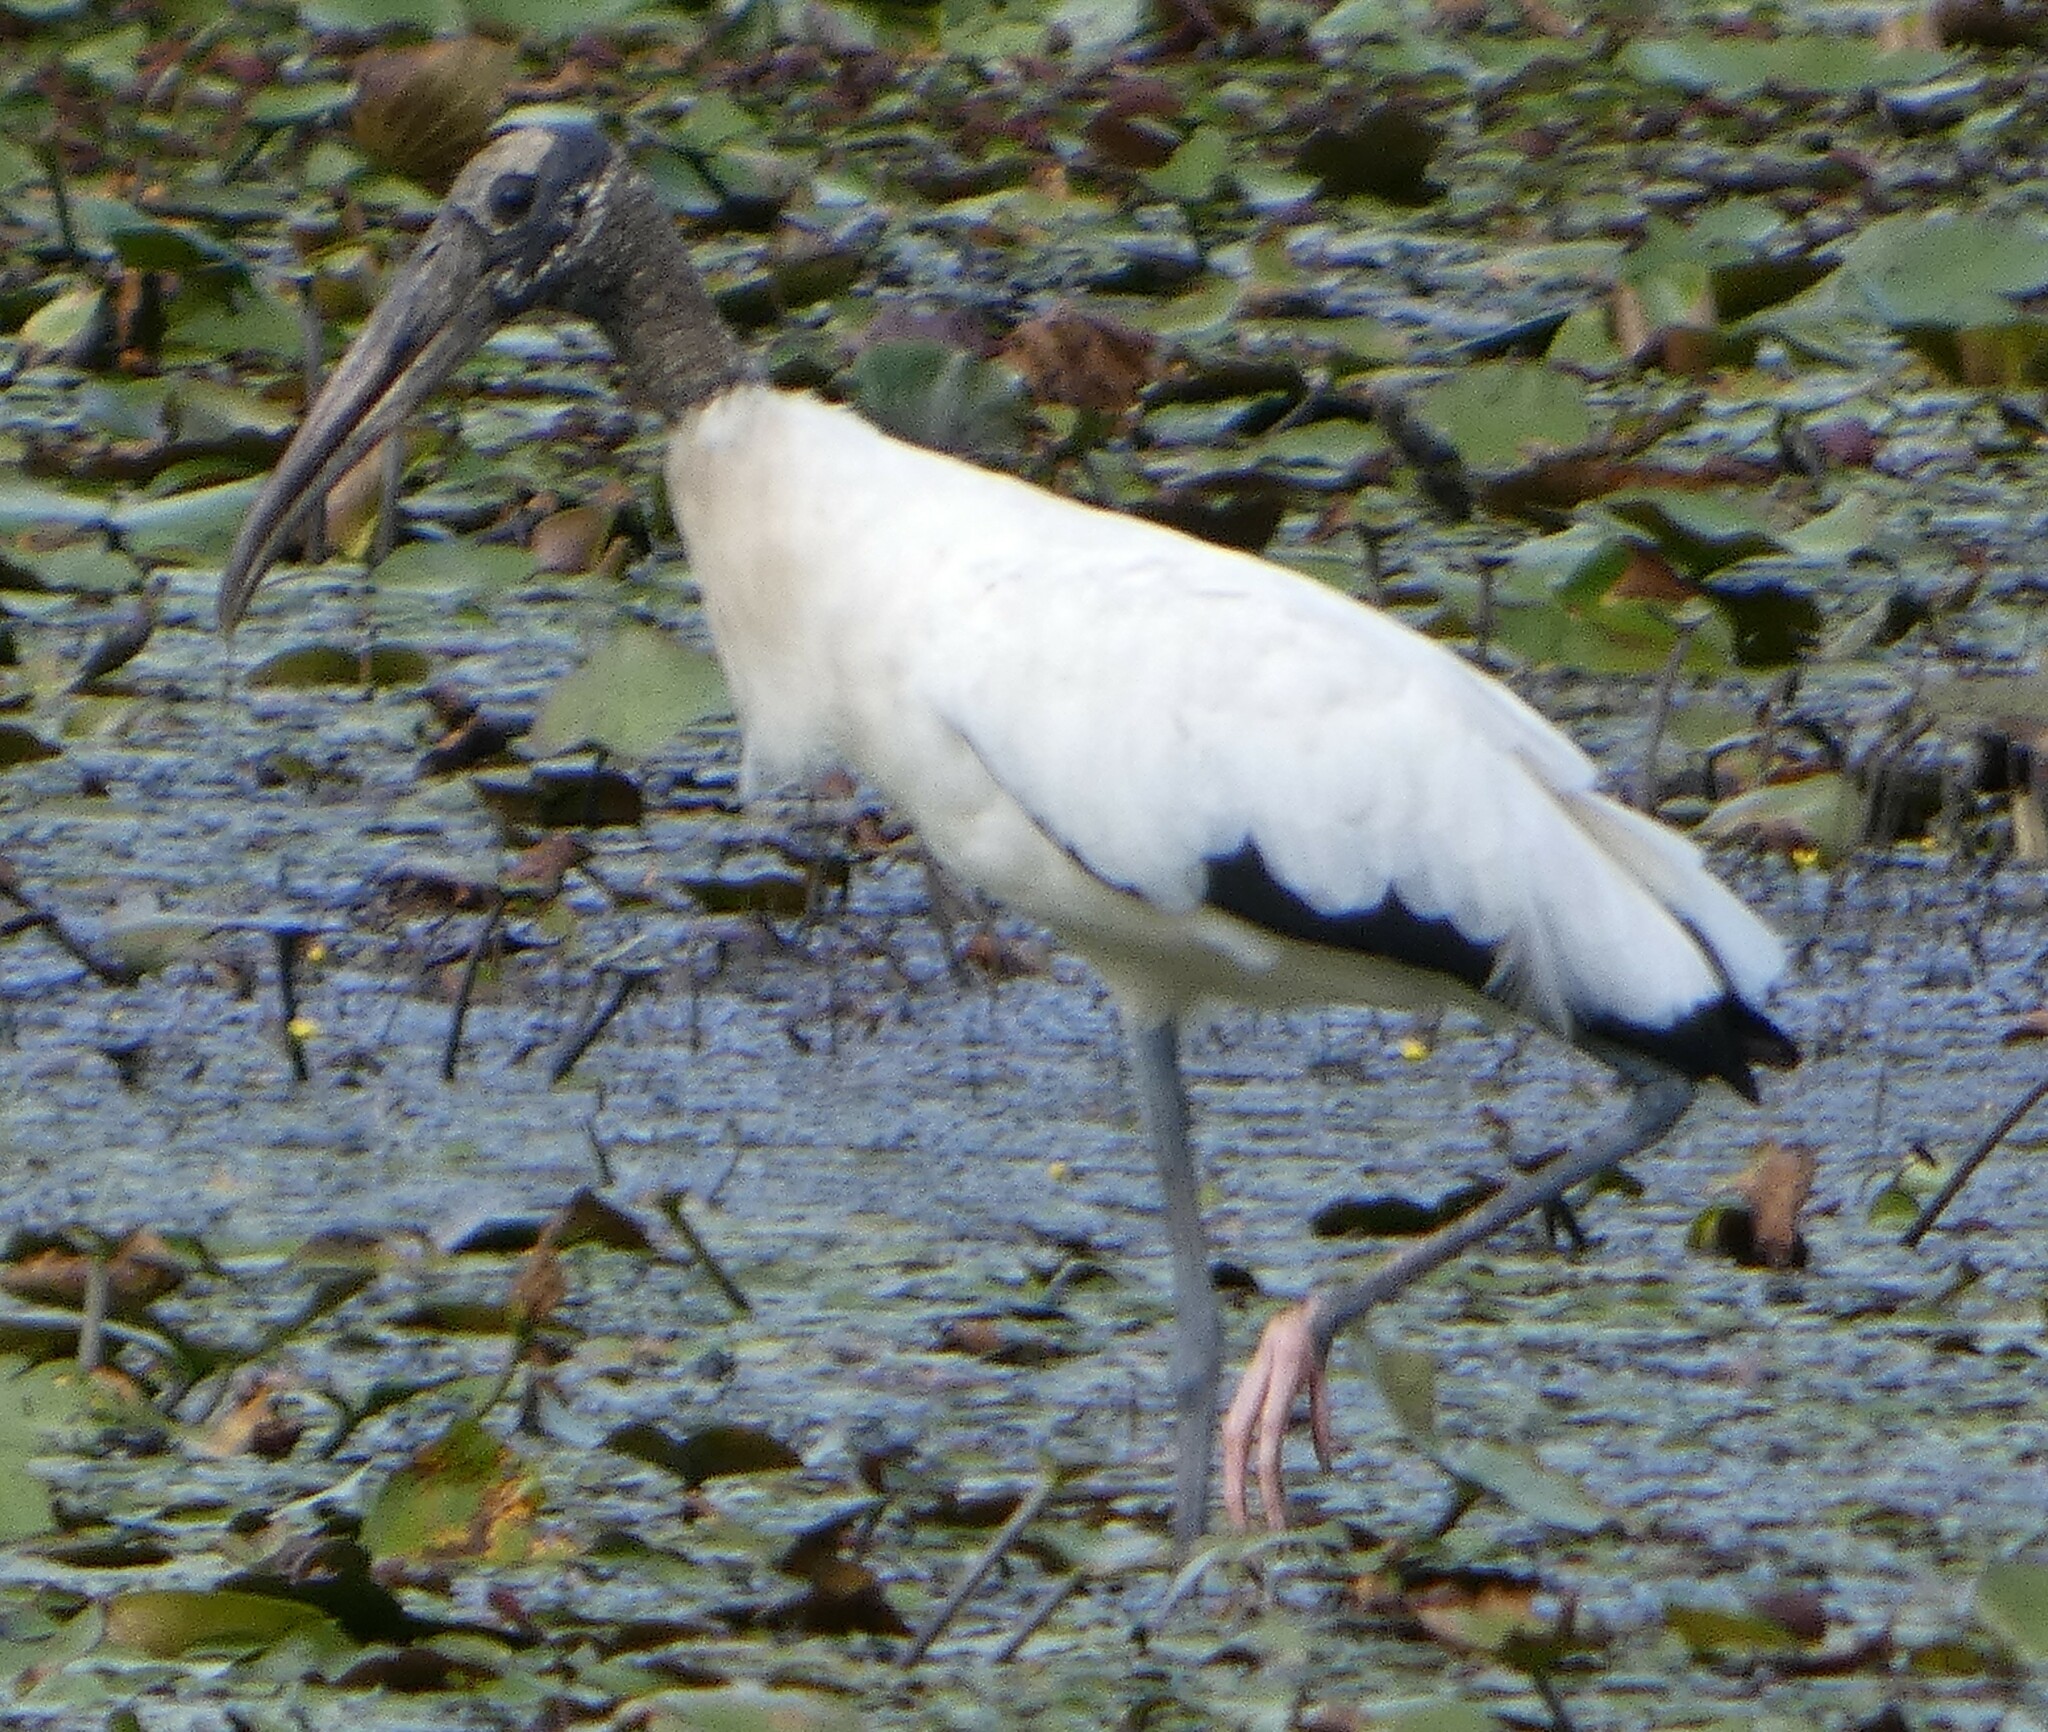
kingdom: Animalia
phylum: Chordata
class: Aves
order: Ciconiiformes
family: Ciconiidae
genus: Mycteria
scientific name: Mycteria americana
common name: Wood stork
